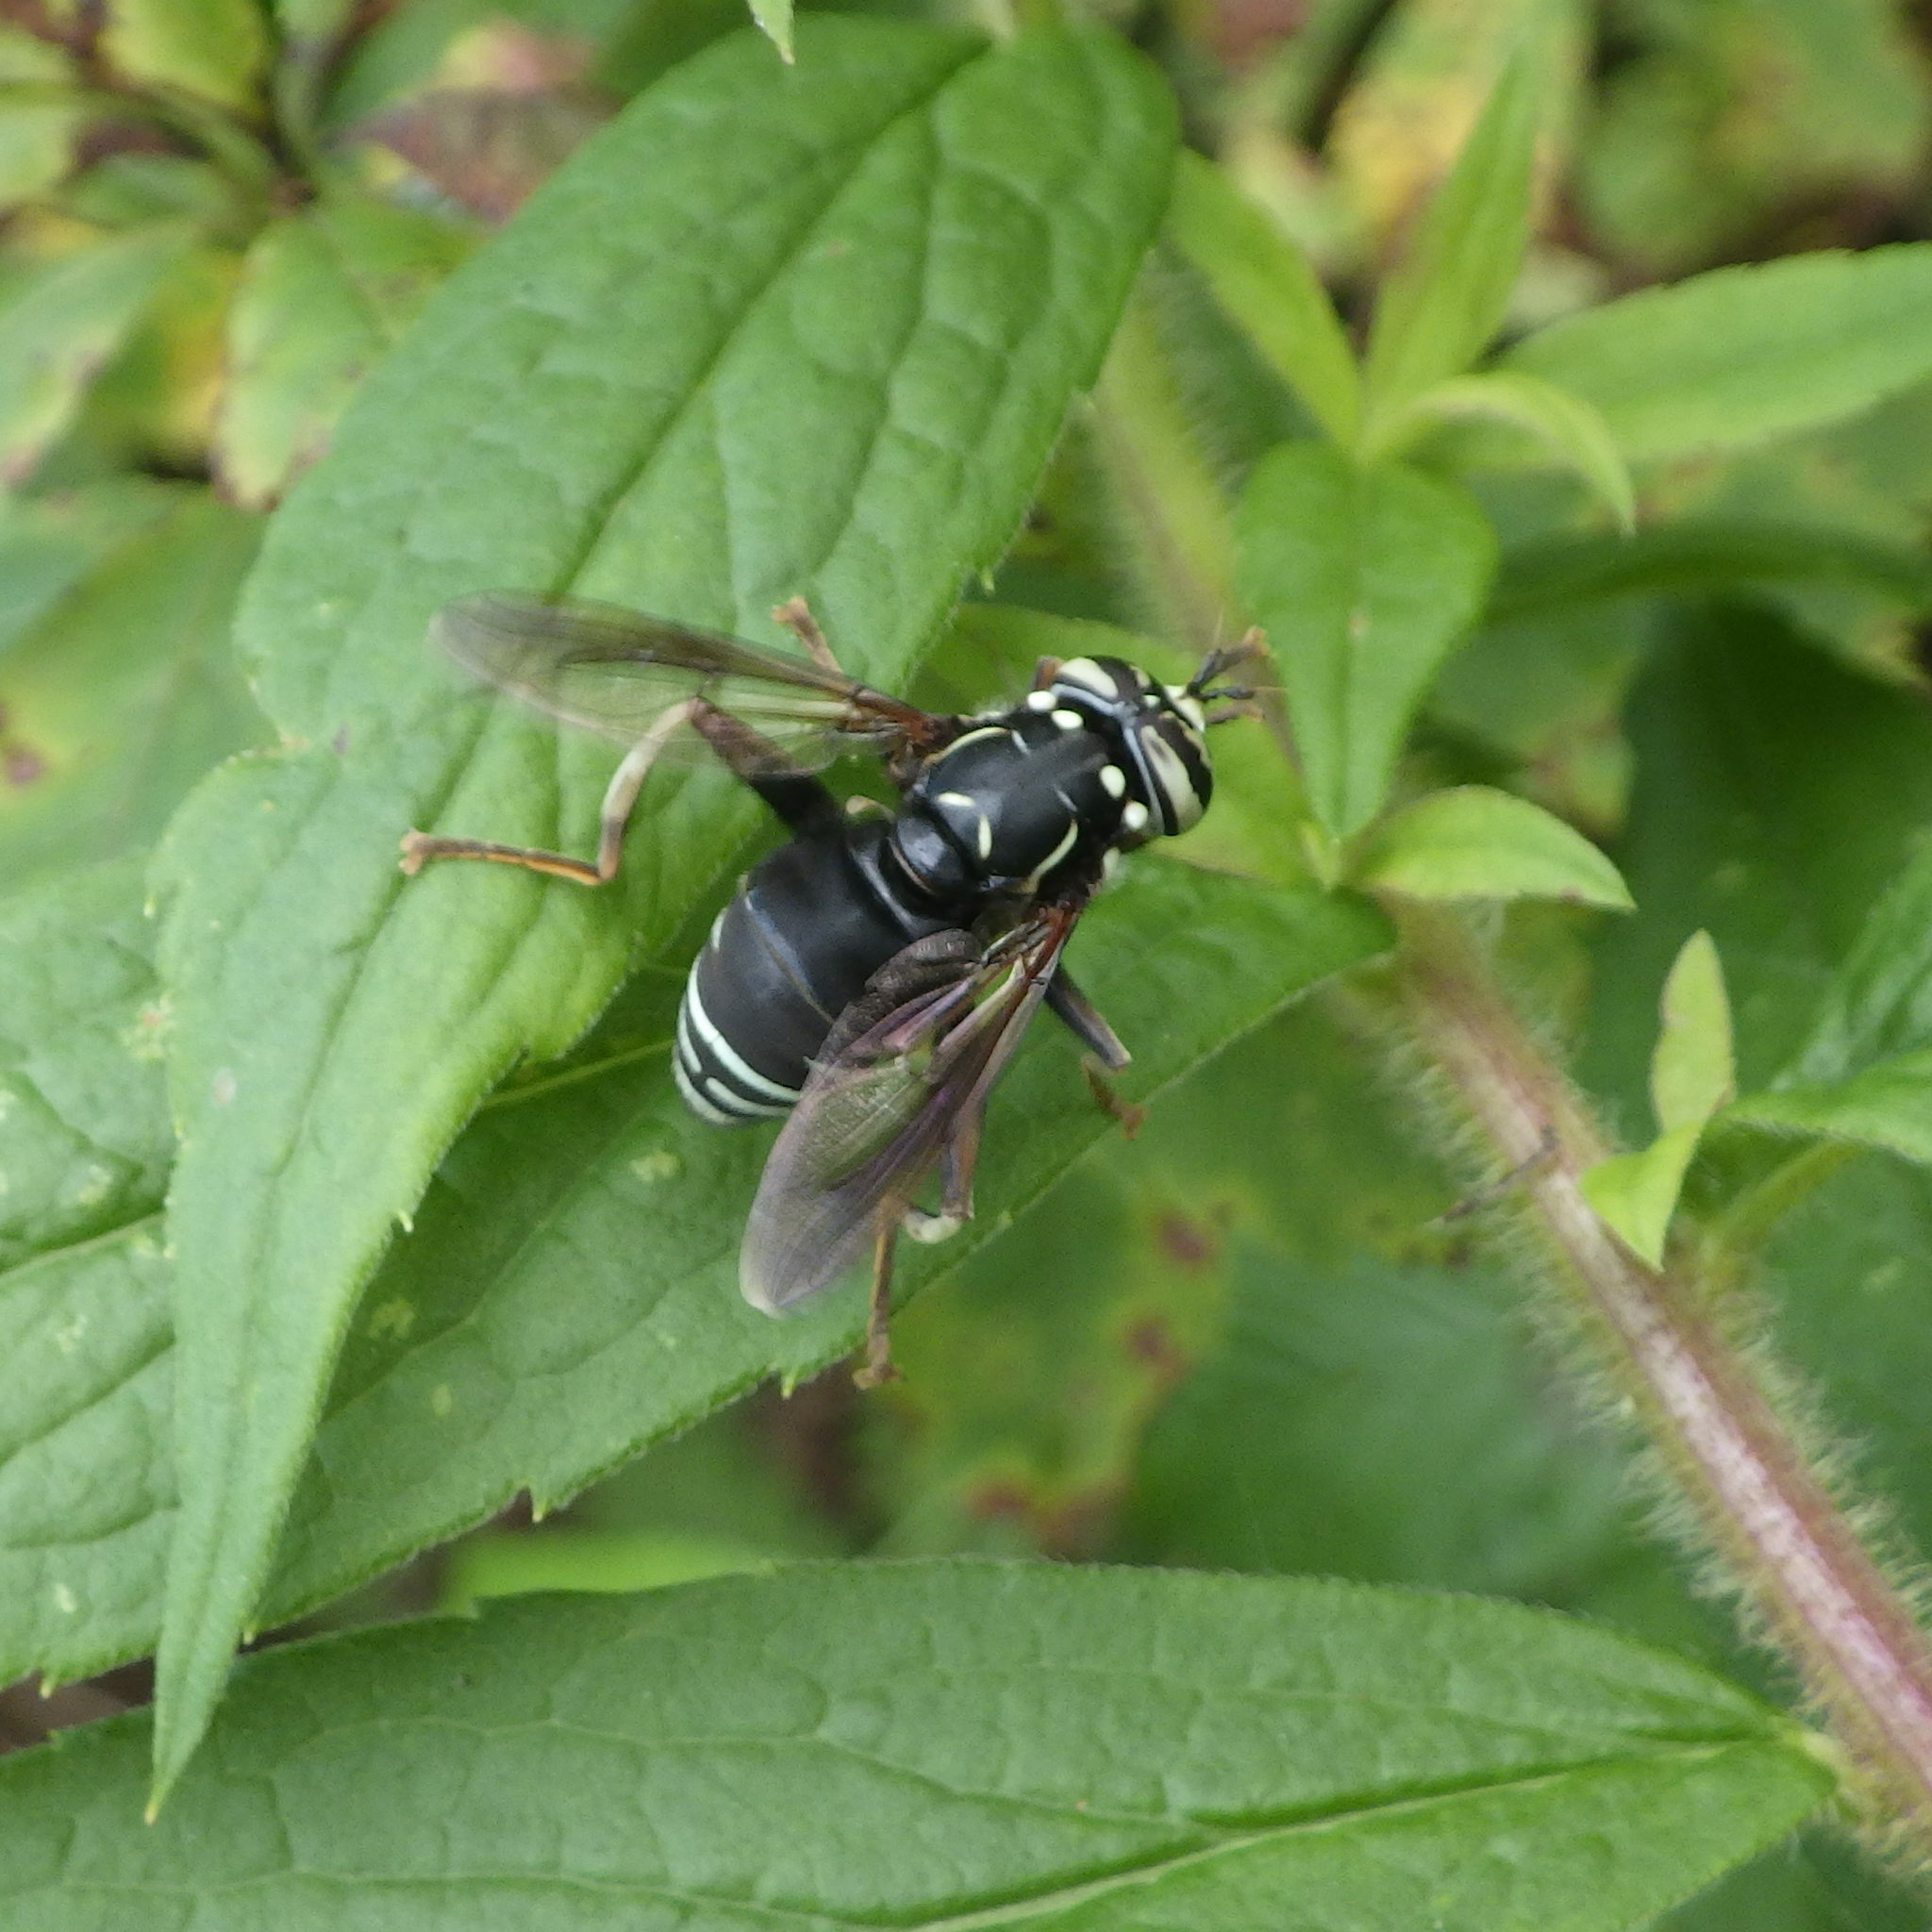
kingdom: Animalia
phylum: Arthropoda
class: Insecta
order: Diptera
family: Syrphidae
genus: Spilomyia
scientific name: Spilomyia fusca
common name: Bald-faced hornet fly
